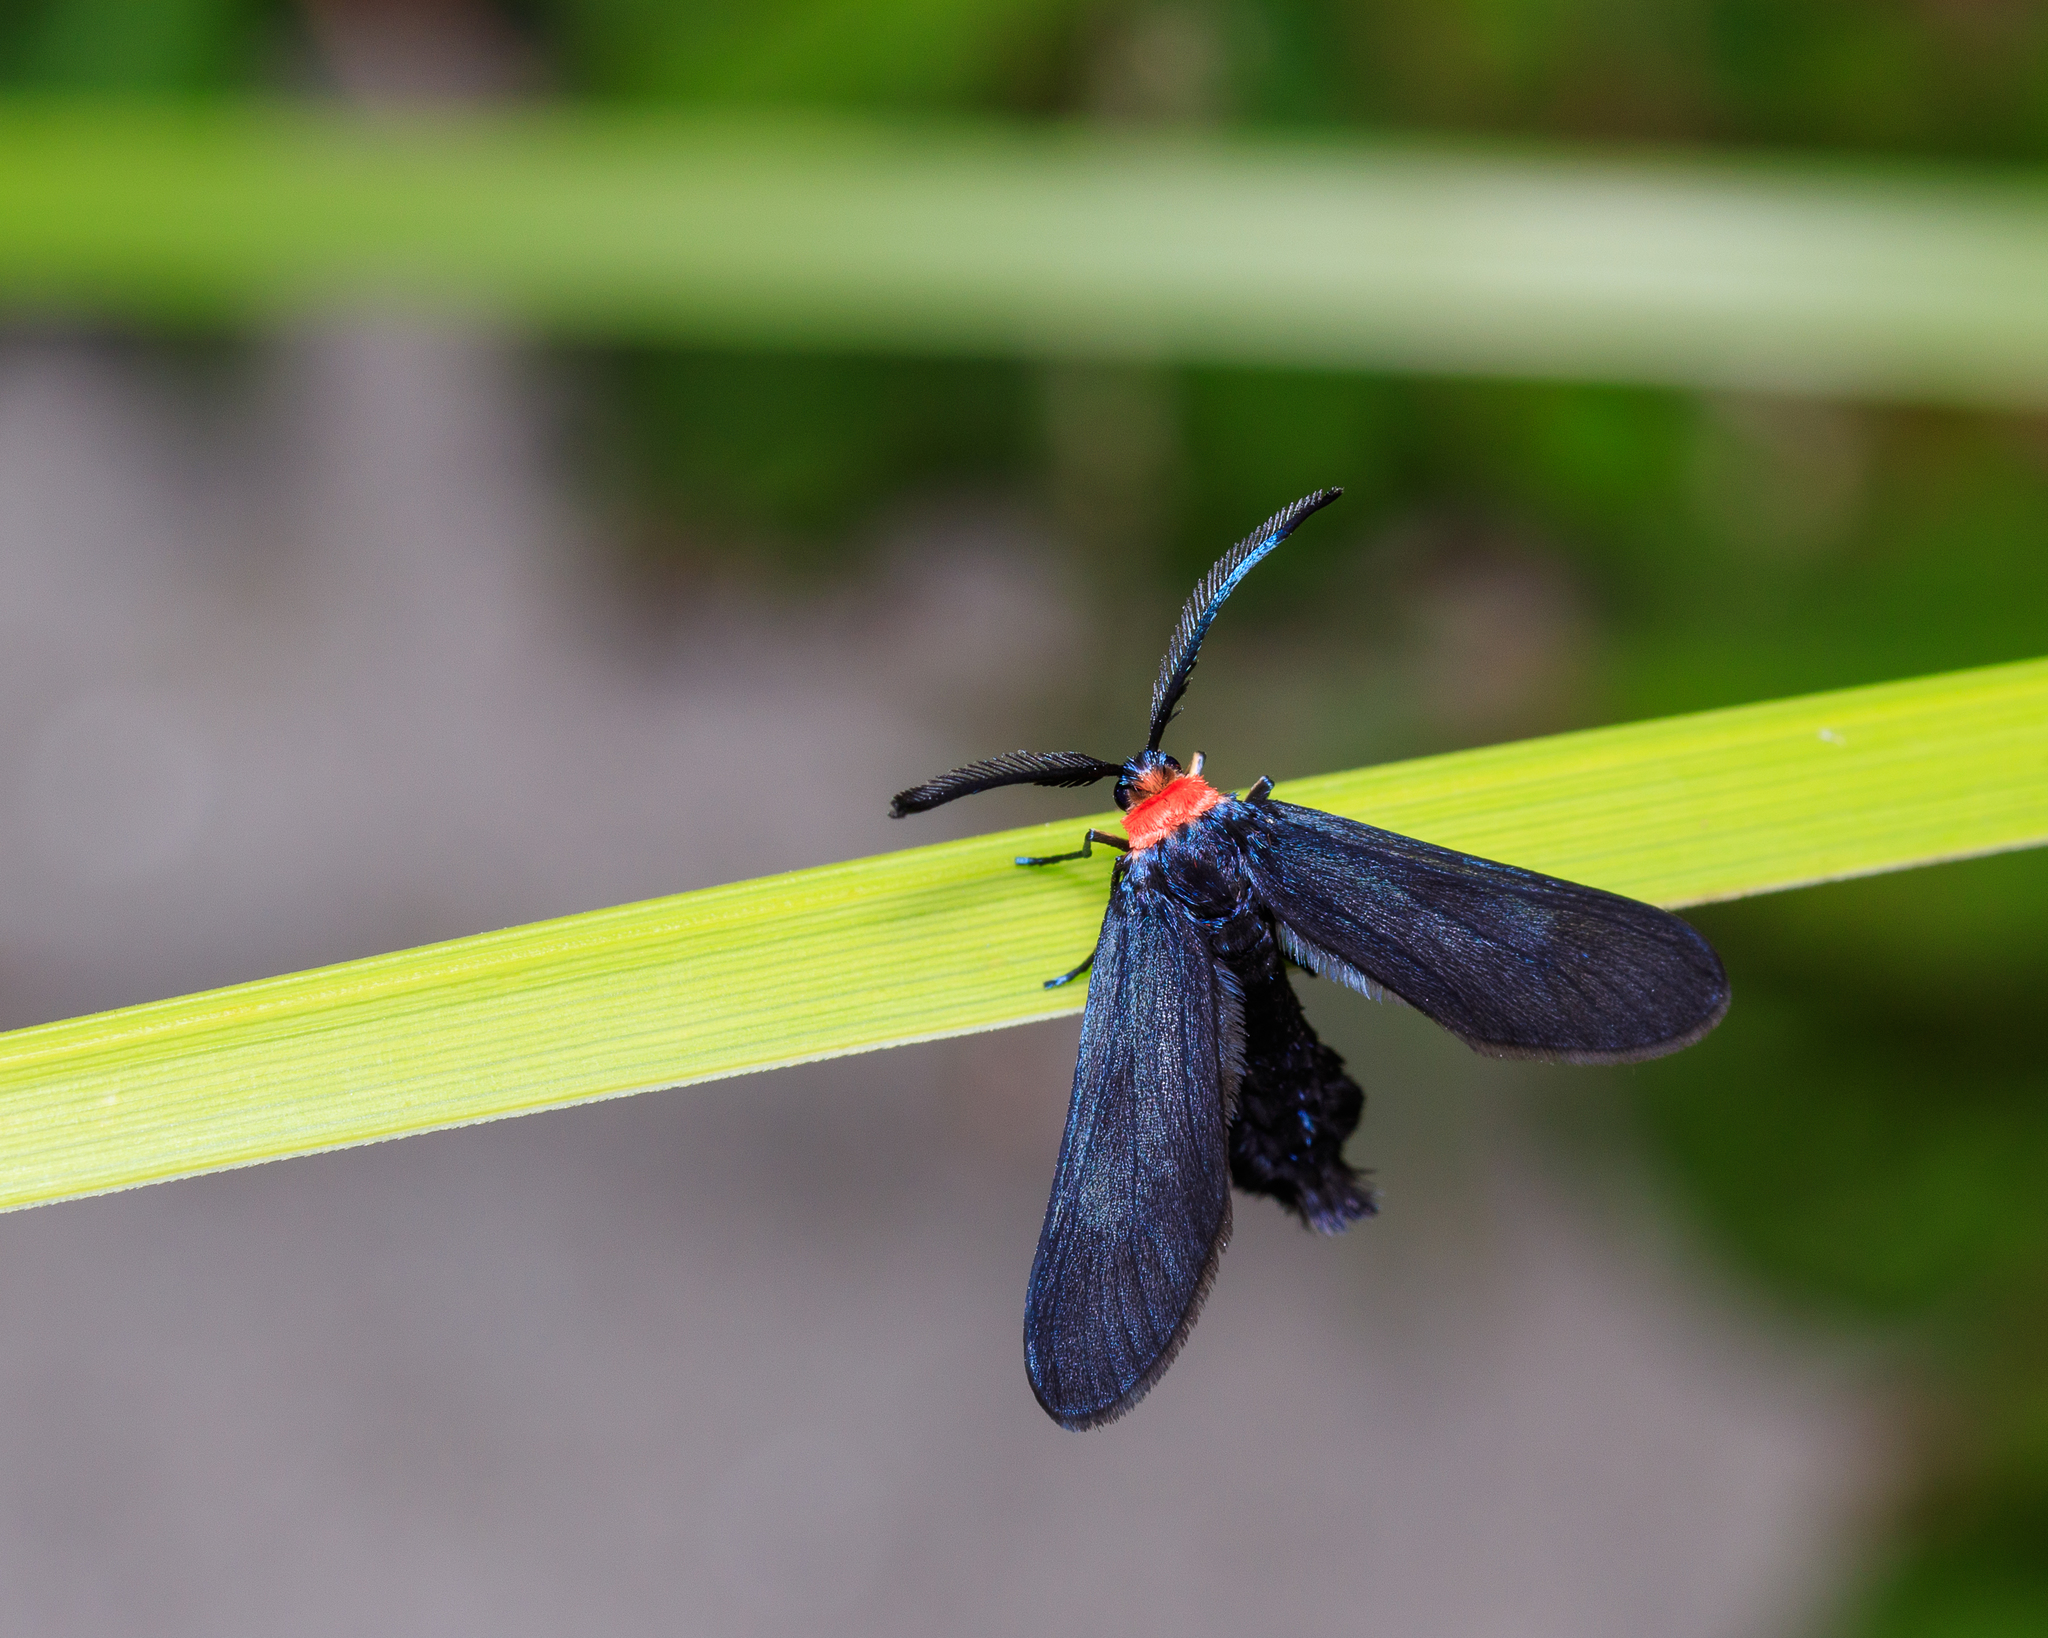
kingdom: Animalia
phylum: Arthropoda
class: Insecta
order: Lepidoptera
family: Zygaenidae
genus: Harrisina
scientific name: Harrisina americana
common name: Grapeleaf skeletonizer moth
